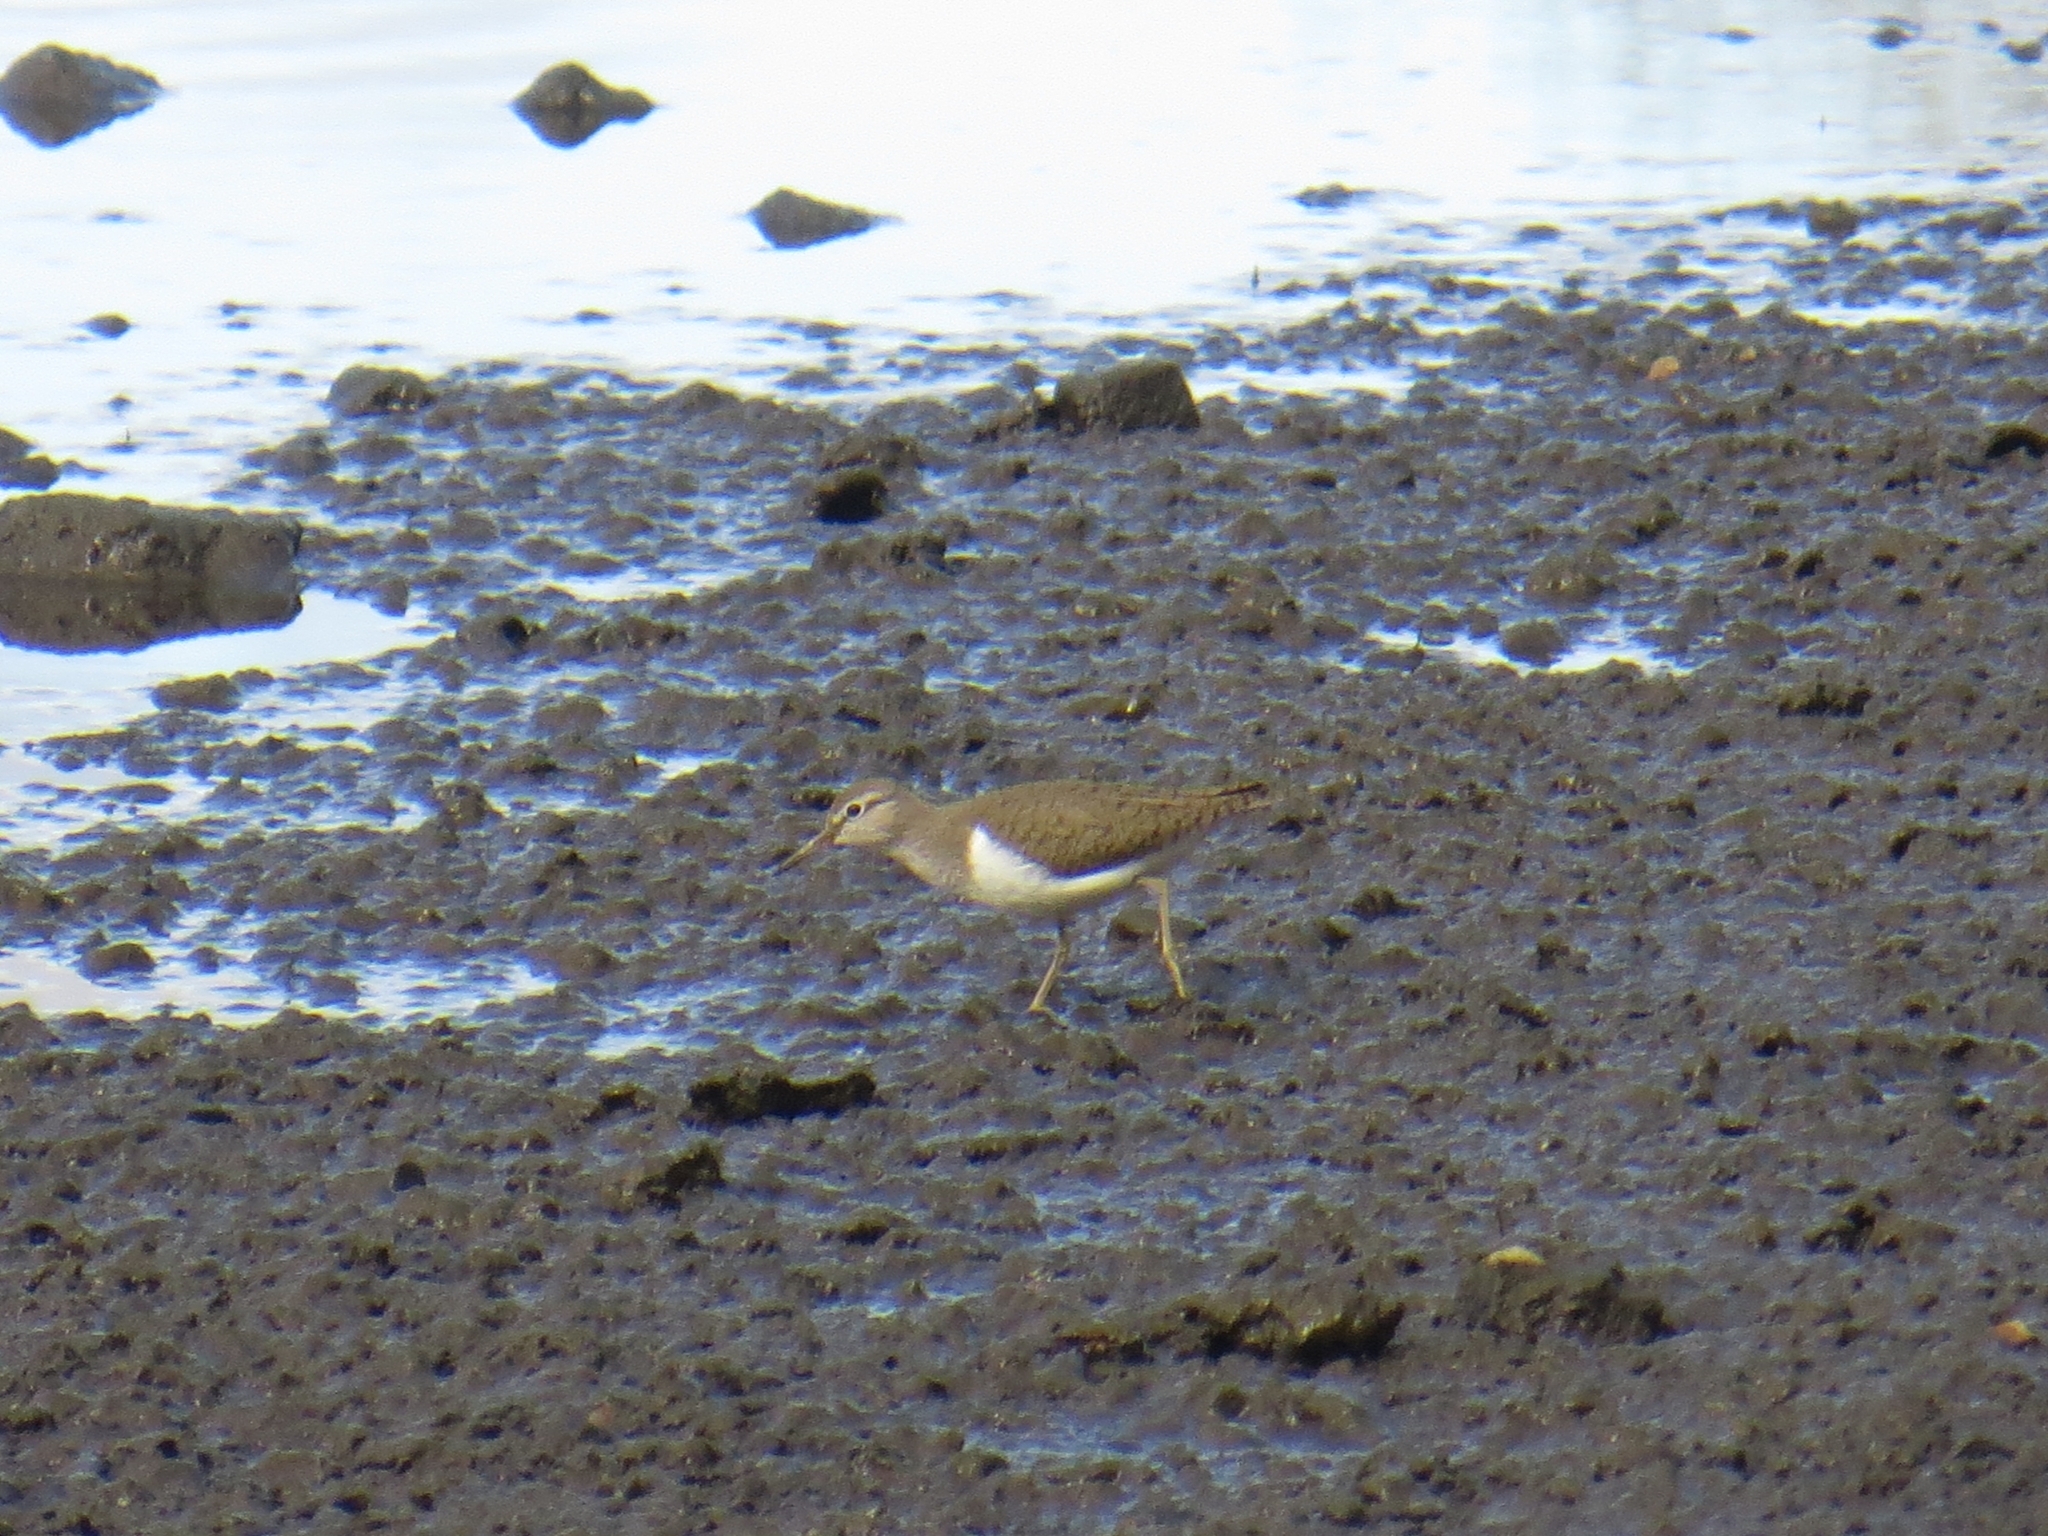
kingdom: Animalia
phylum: Chordata
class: Aves
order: Charadriiformes
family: Scolopacidae
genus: Actitis
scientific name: Actitis hypoleucos
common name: Common sandpiper
